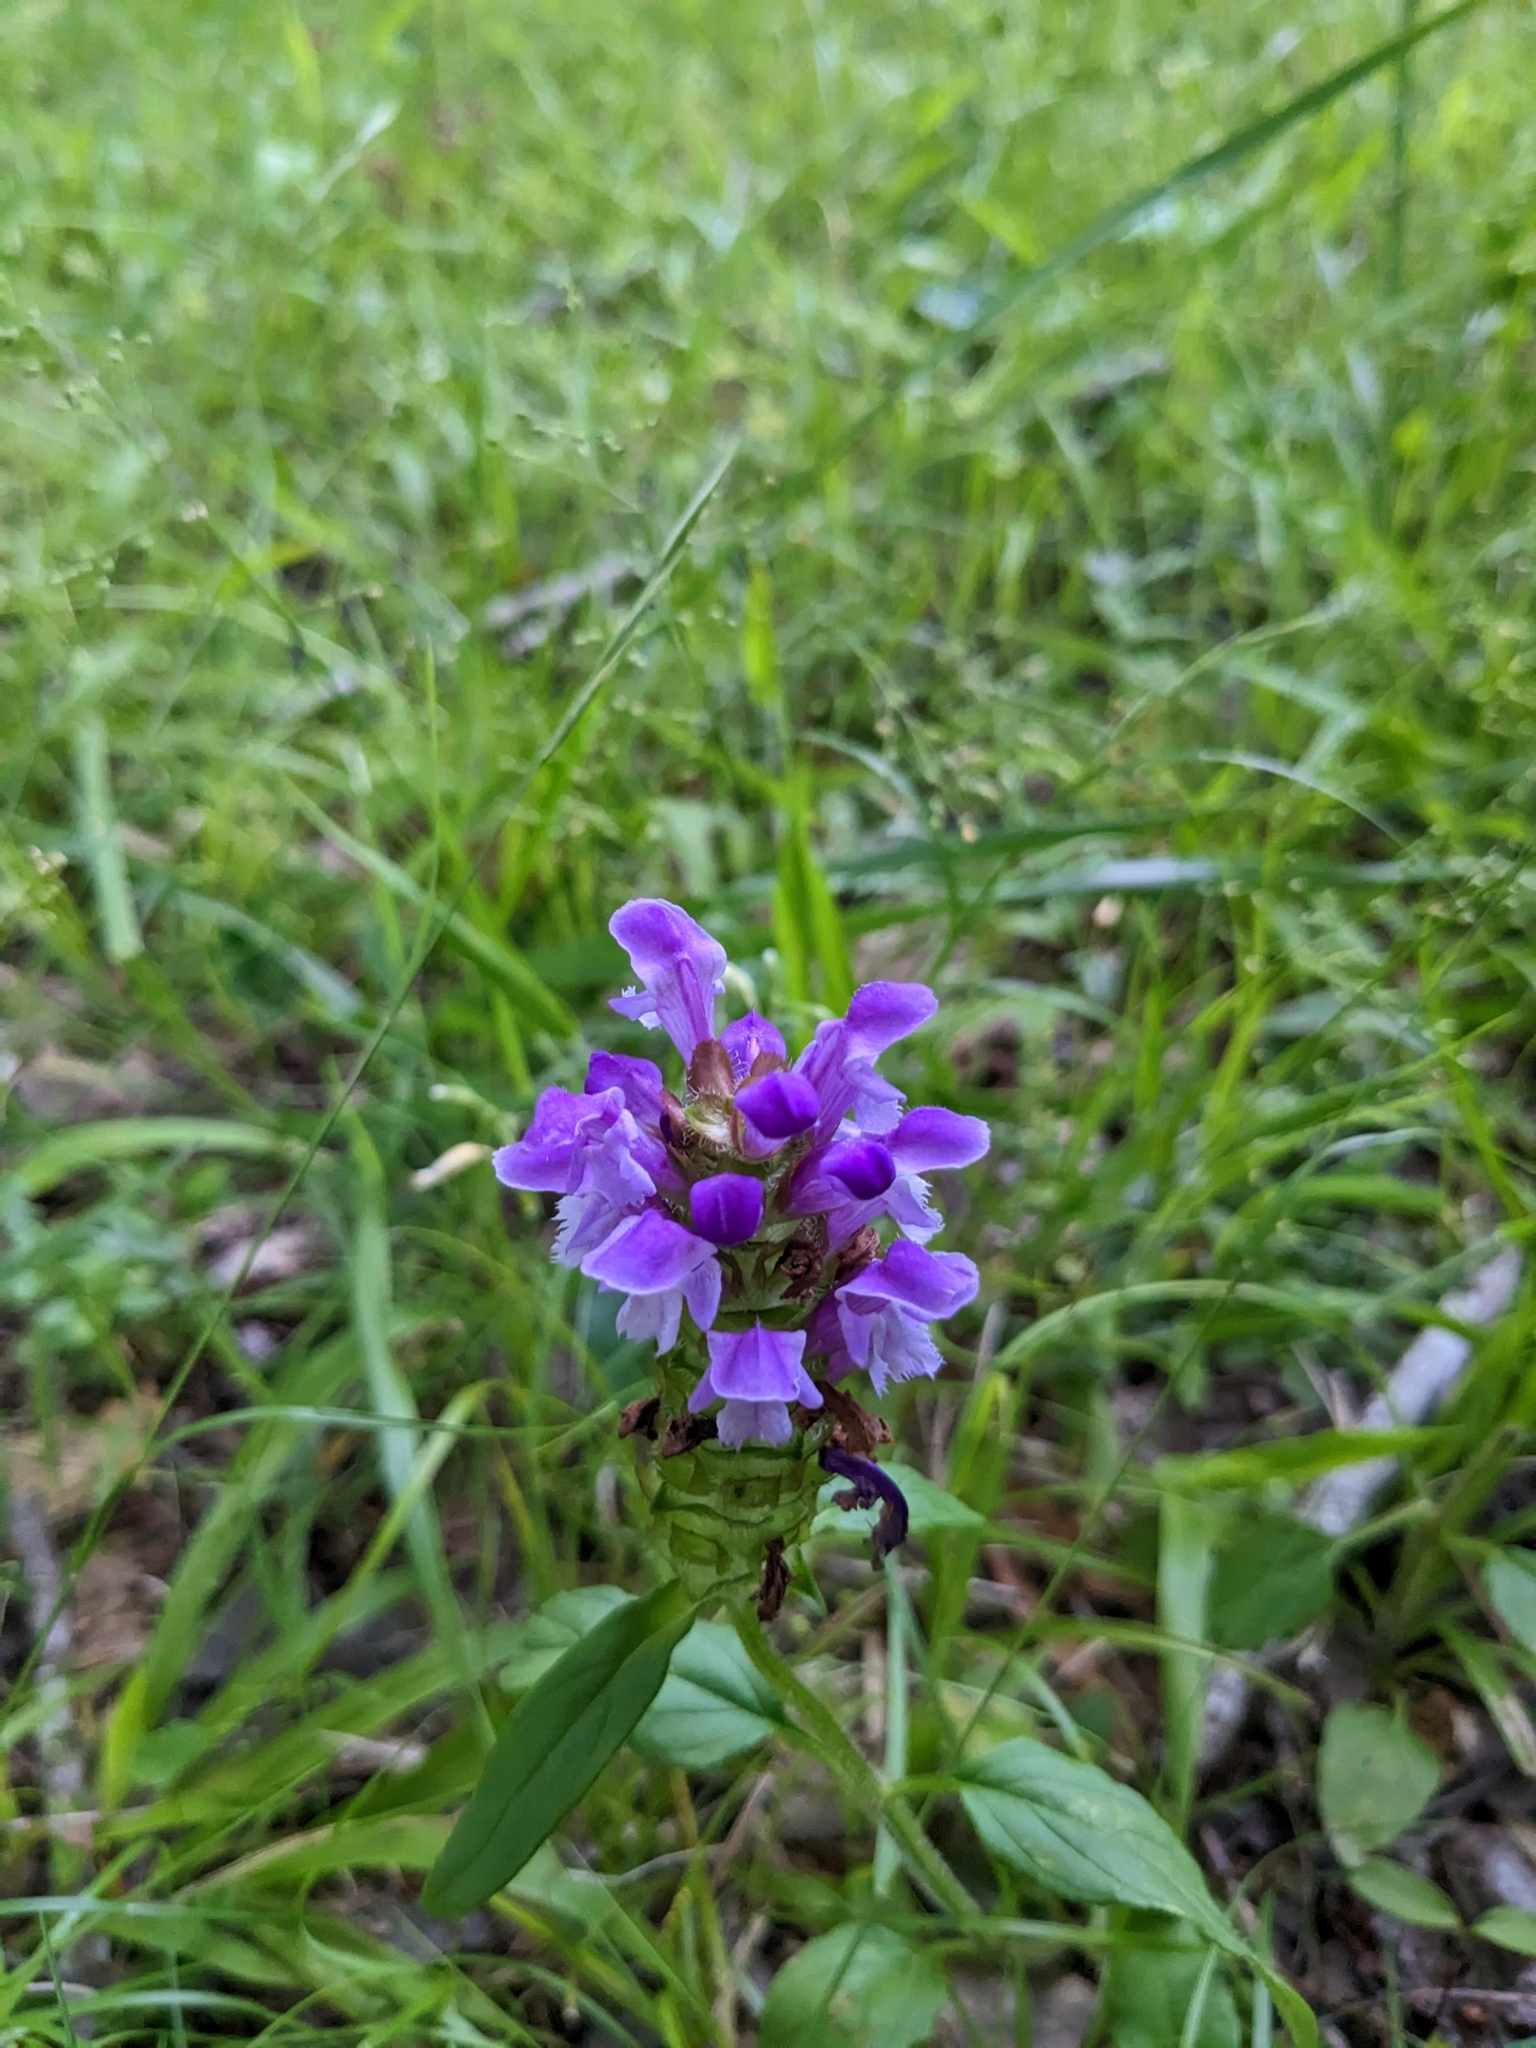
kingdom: Plantae
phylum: Tracheophyta
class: Magnoliopsida
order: Lamiales
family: Lamiaceae
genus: Prunella
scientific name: Prunella vulgaris
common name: Heal-all
